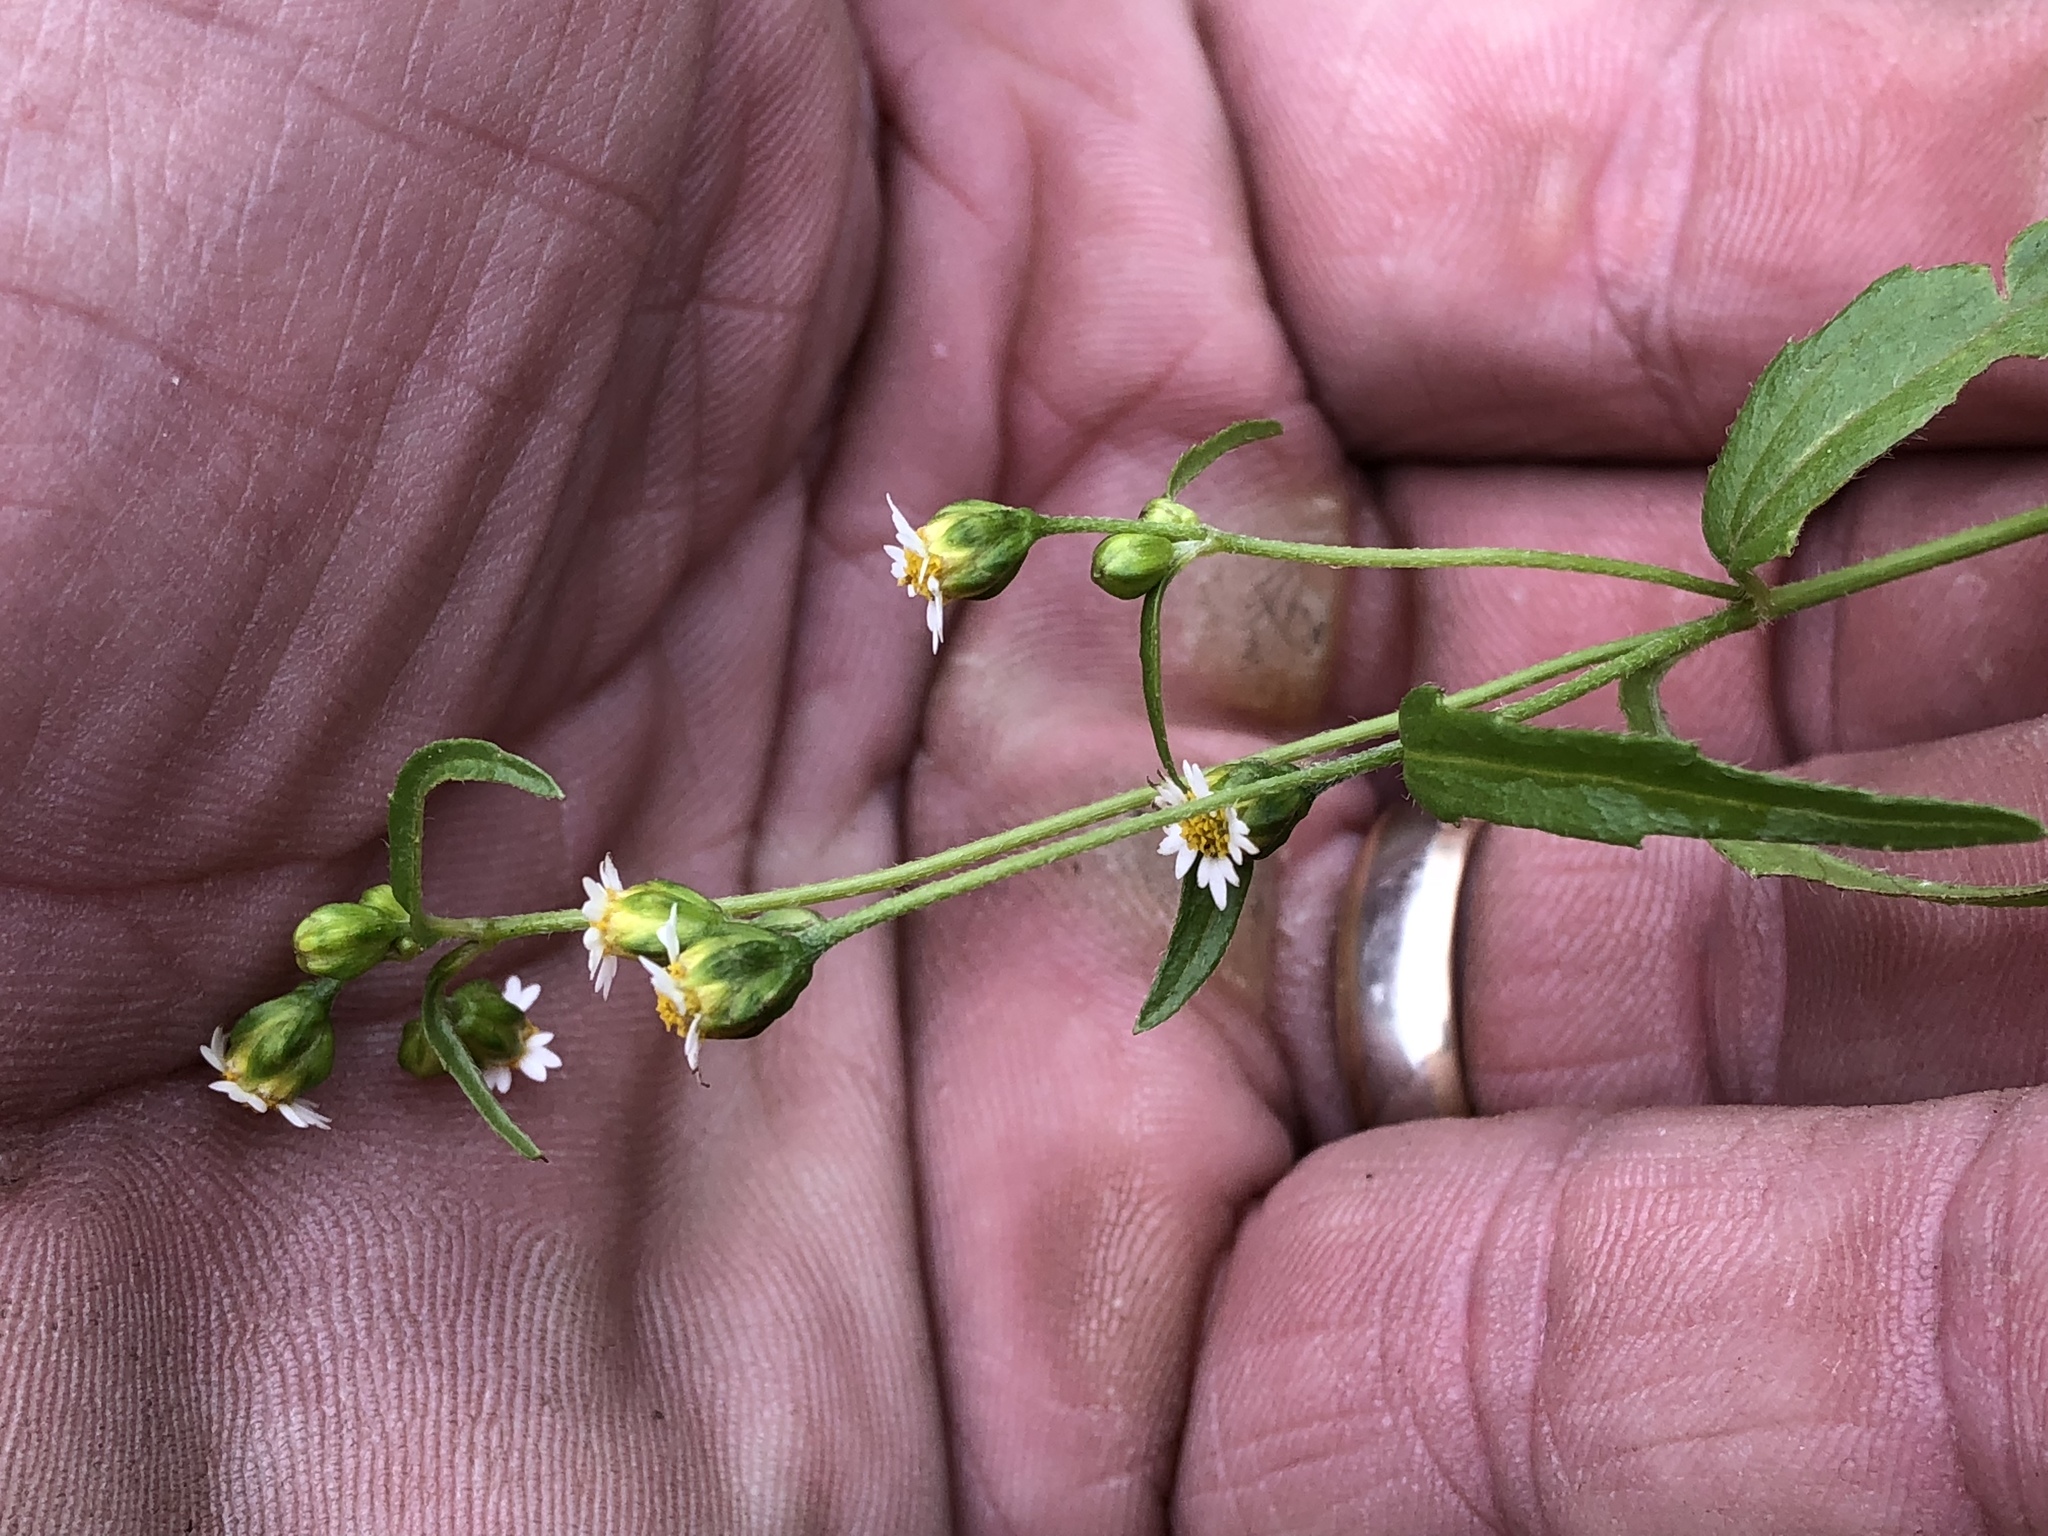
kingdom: Plantae
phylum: Tracheophyta
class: Magnoliopsida
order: Asterales
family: Asteraceae
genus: Galinsoga
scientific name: Galinsoga parviflora
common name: Gallant soldier
